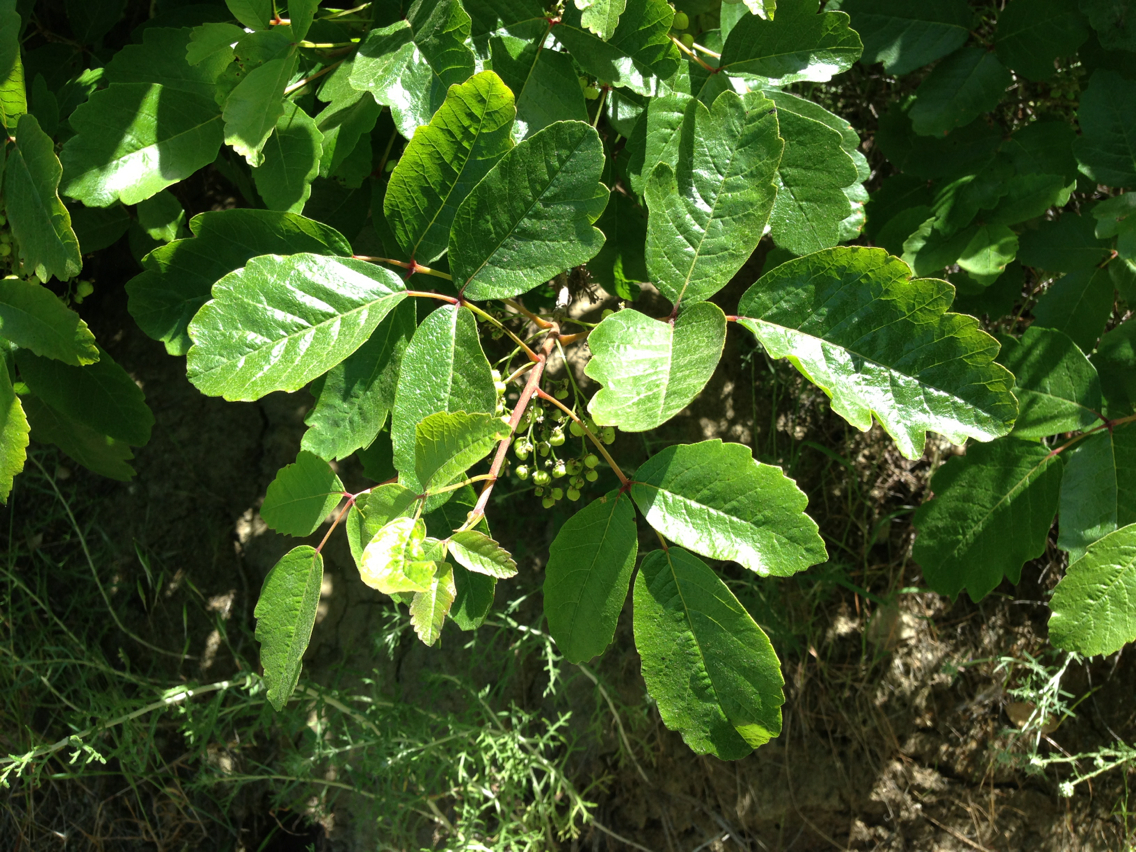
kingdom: Plantae
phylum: Tracheophyta
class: Magnoliopsida
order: Sapindales
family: Anacardiaceae
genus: Toxicodendron
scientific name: Toxicodendron diversilobum
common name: Pacific poison-oak
